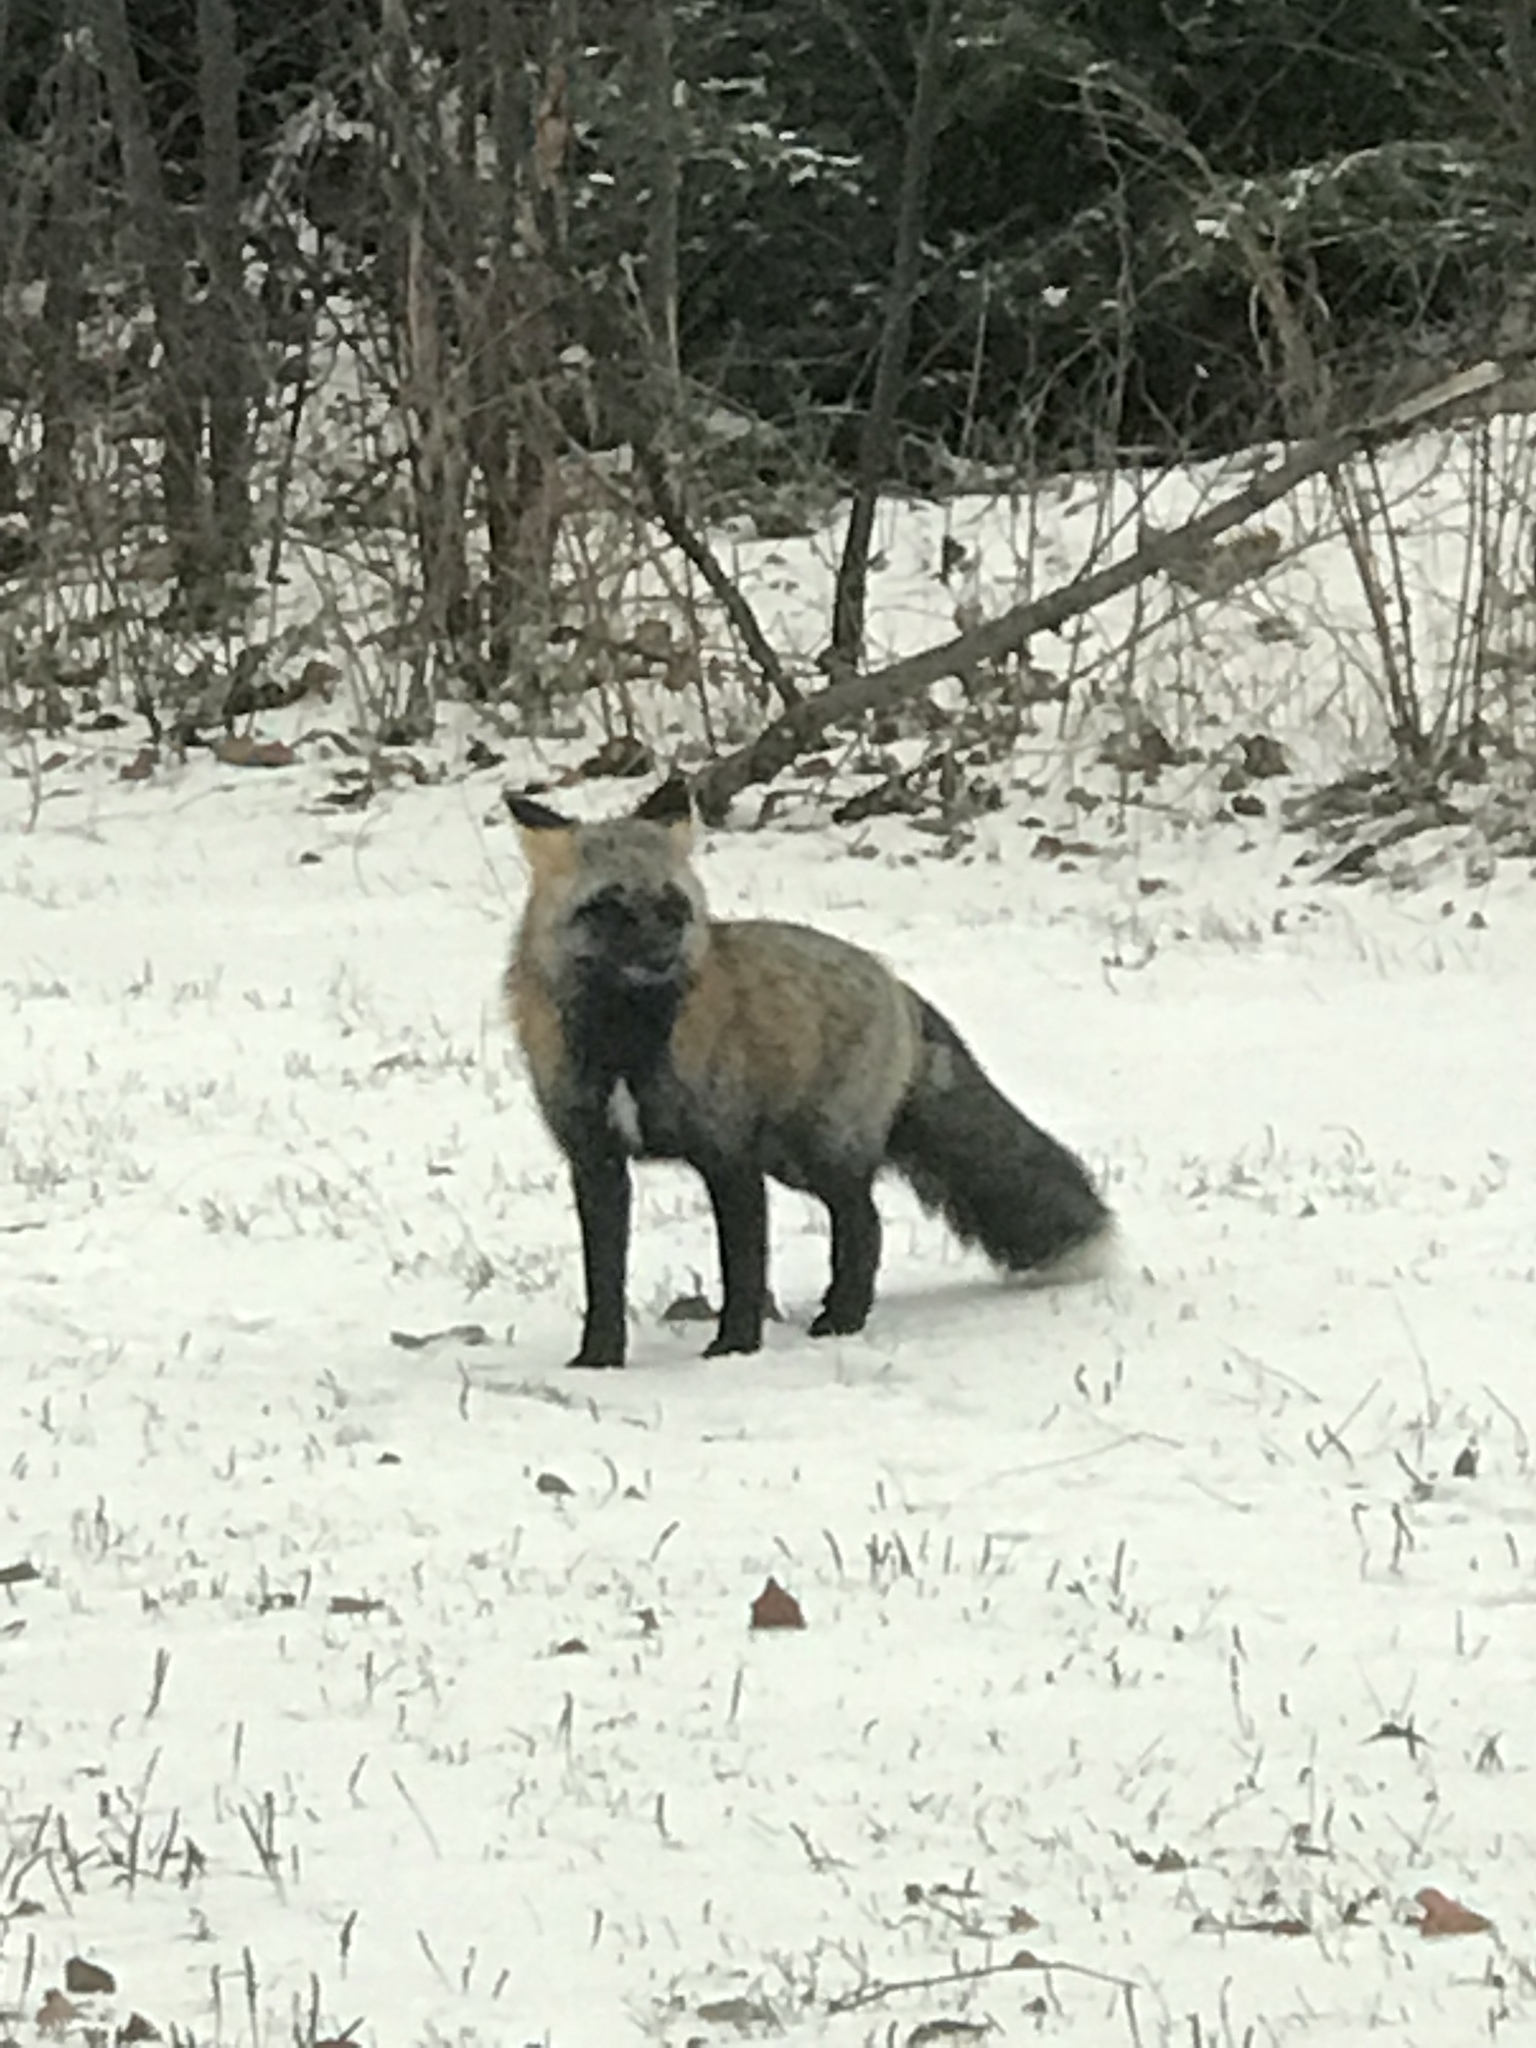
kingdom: Animalia
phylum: Chordata
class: Mammalia
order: Carnivora
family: Canidae
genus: Vulpes
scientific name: Vulpes vulpes
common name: Red fox
